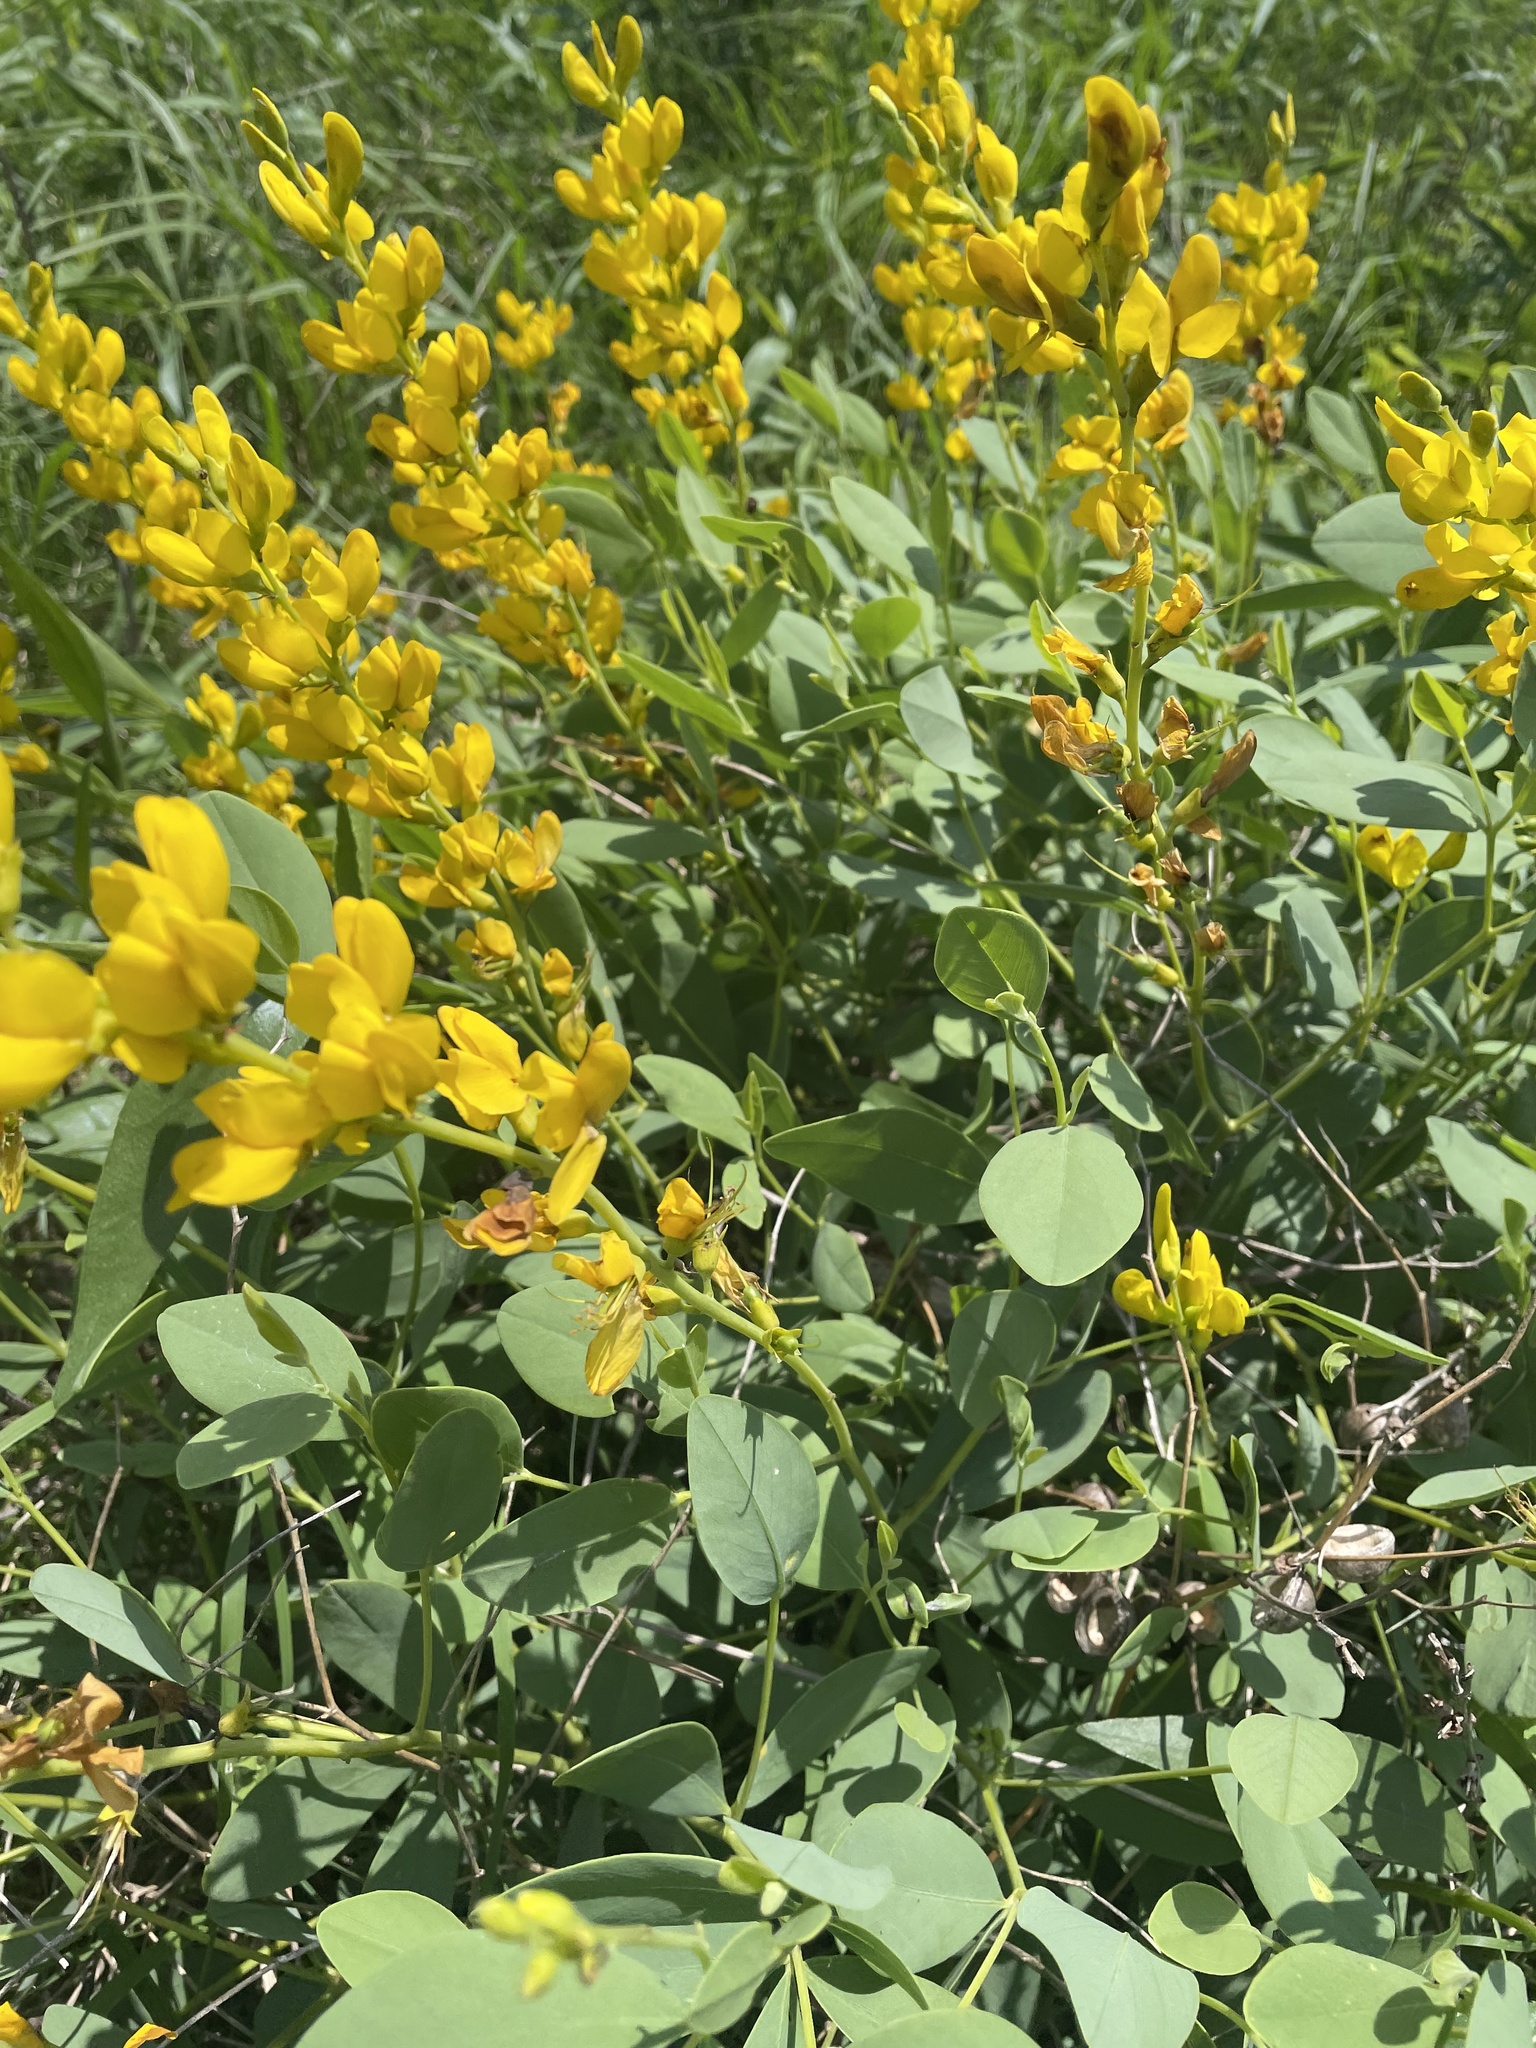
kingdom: Plantae
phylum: Tracheophyta
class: Magnoliopsida
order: Fabales
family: Fabaceae
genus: Baptisia
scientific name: Baptisia sphaerocarpa
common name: Round wild indigo
